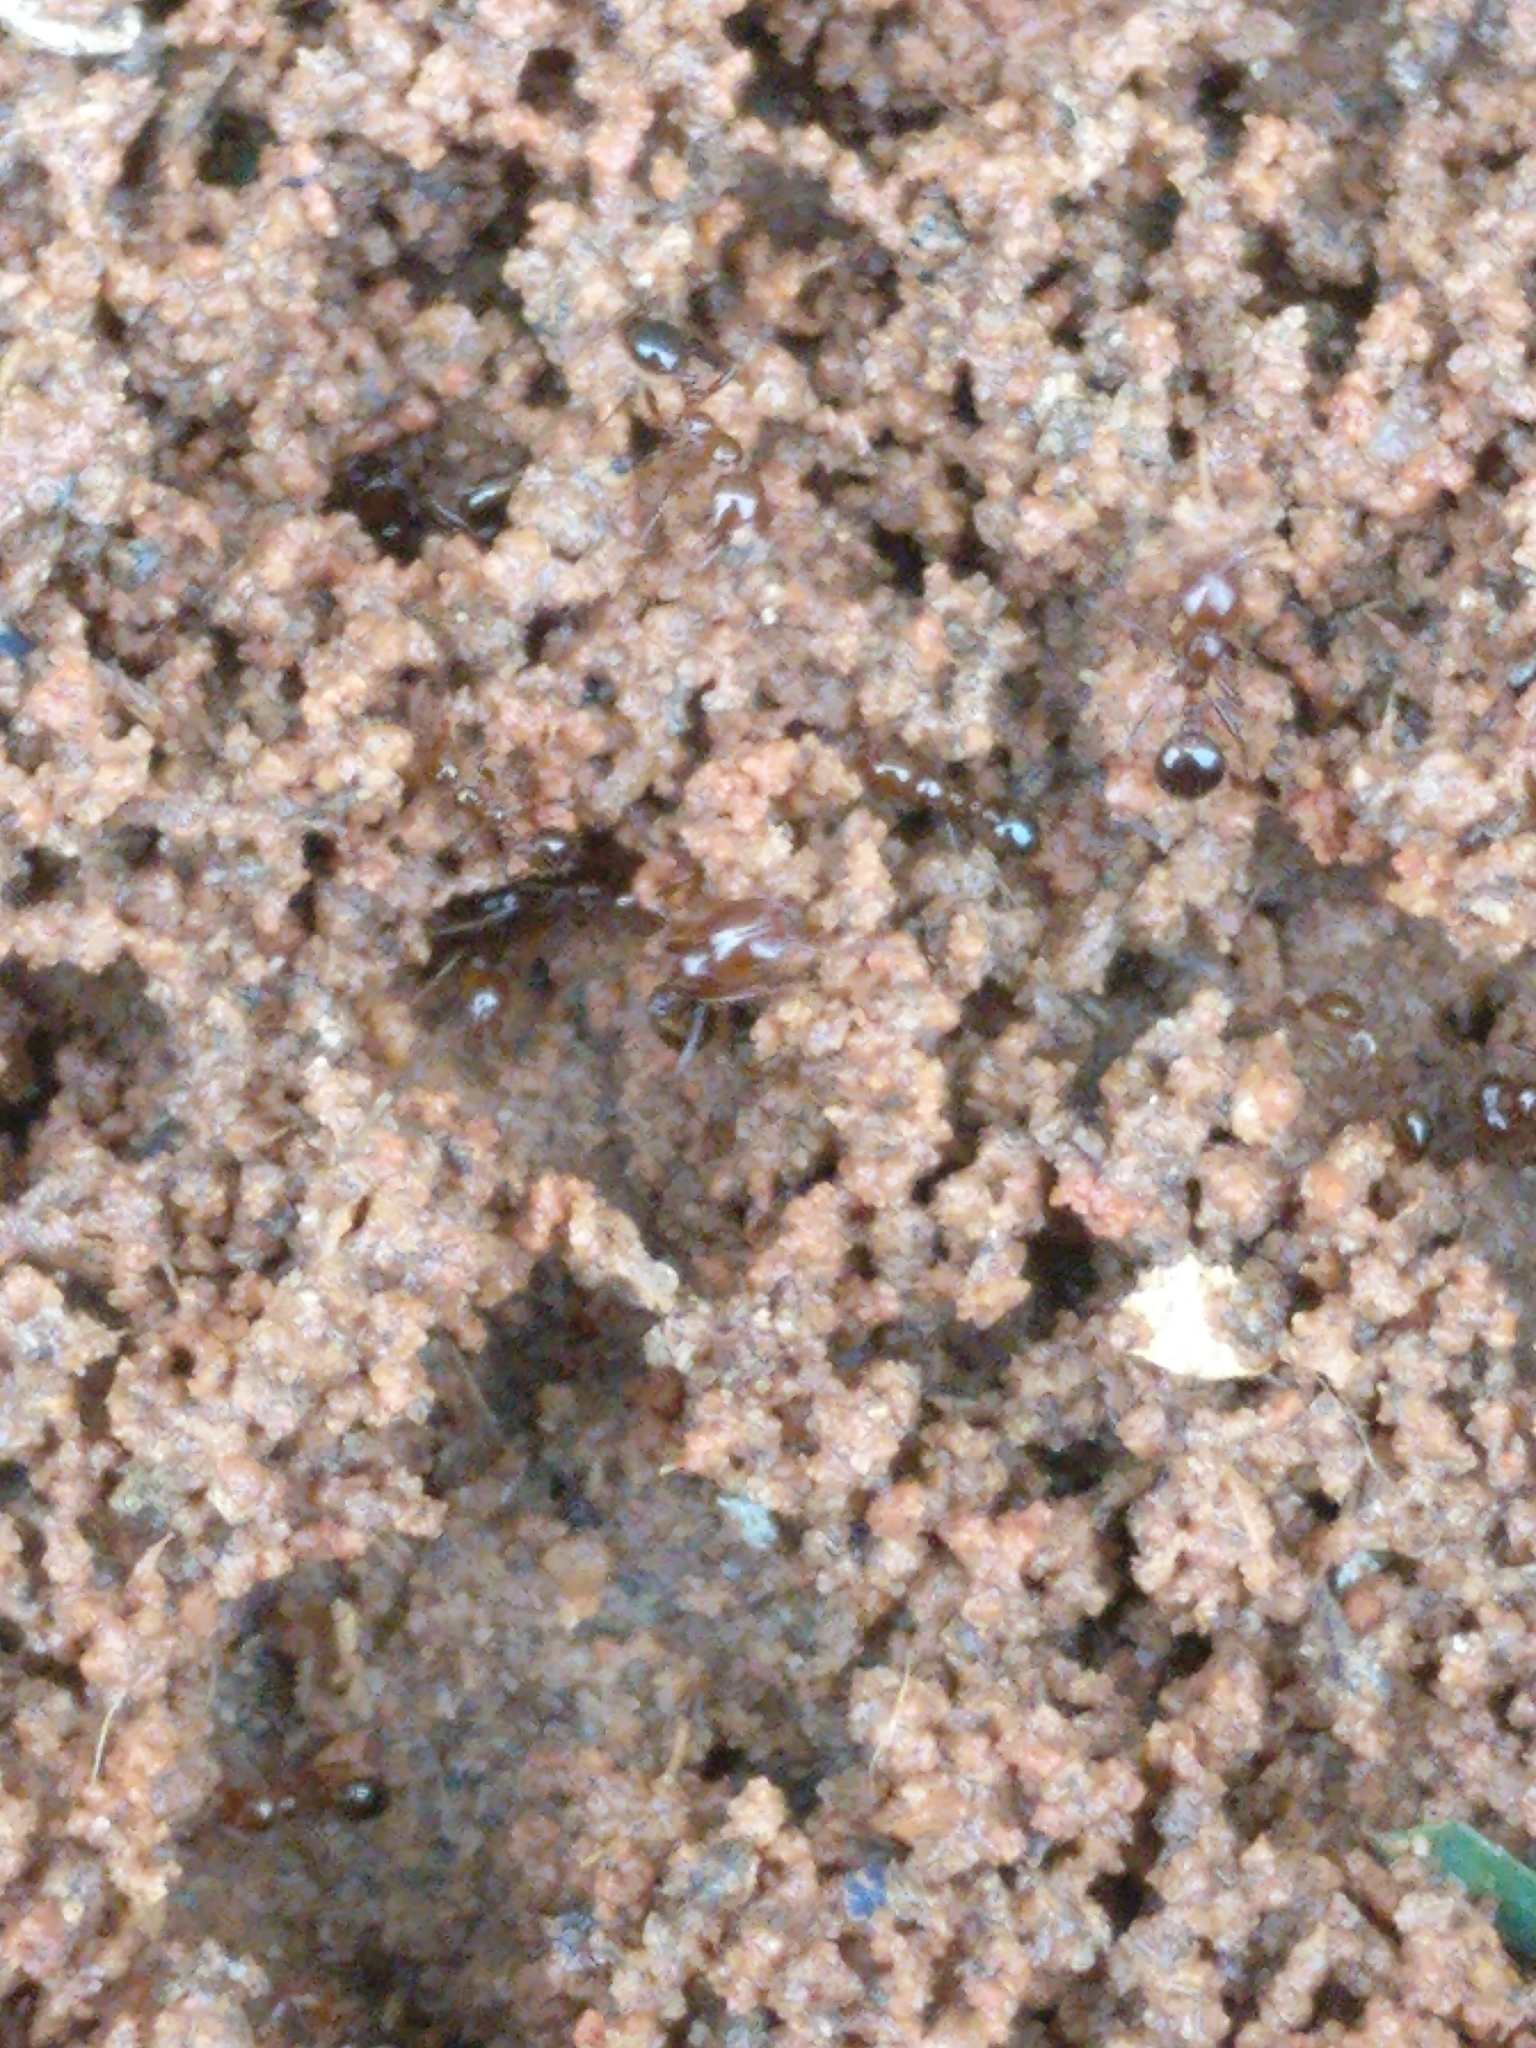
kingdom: Animalia
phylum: Arthropoda
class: Insecta
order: Hymenoptera
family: Formicidae
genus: Solenopsis
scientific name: Solenopsis invicta
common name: Red imported fire ant
